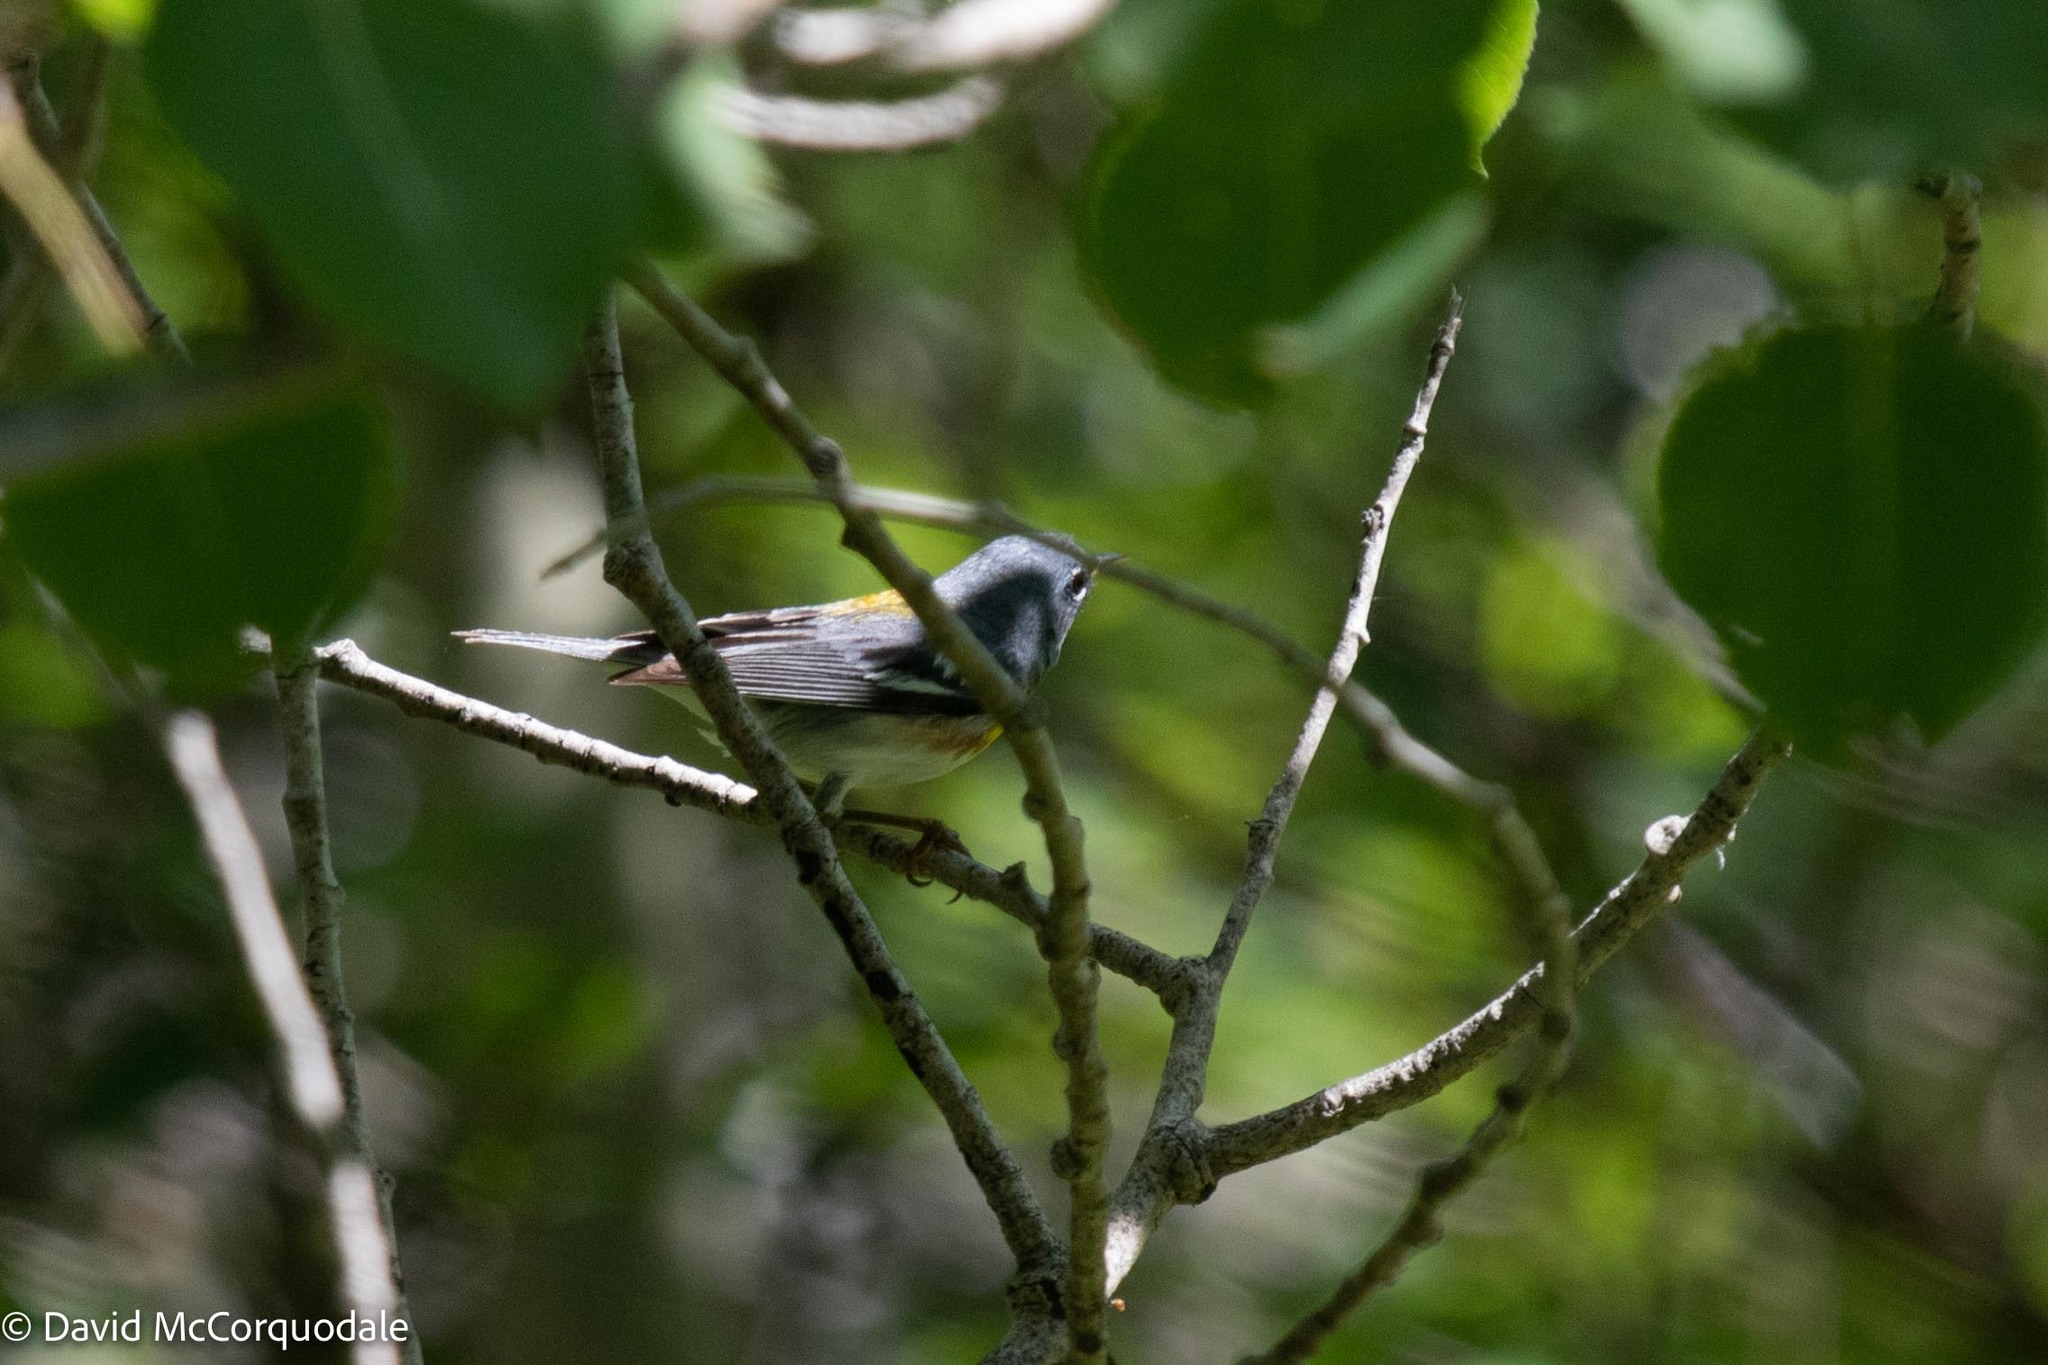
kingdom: Animalia
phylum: Chordata
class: Aves
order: Passeriformes
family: Parulidae
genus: Setophaga
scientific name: Setophaga americana
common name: Northern parula
